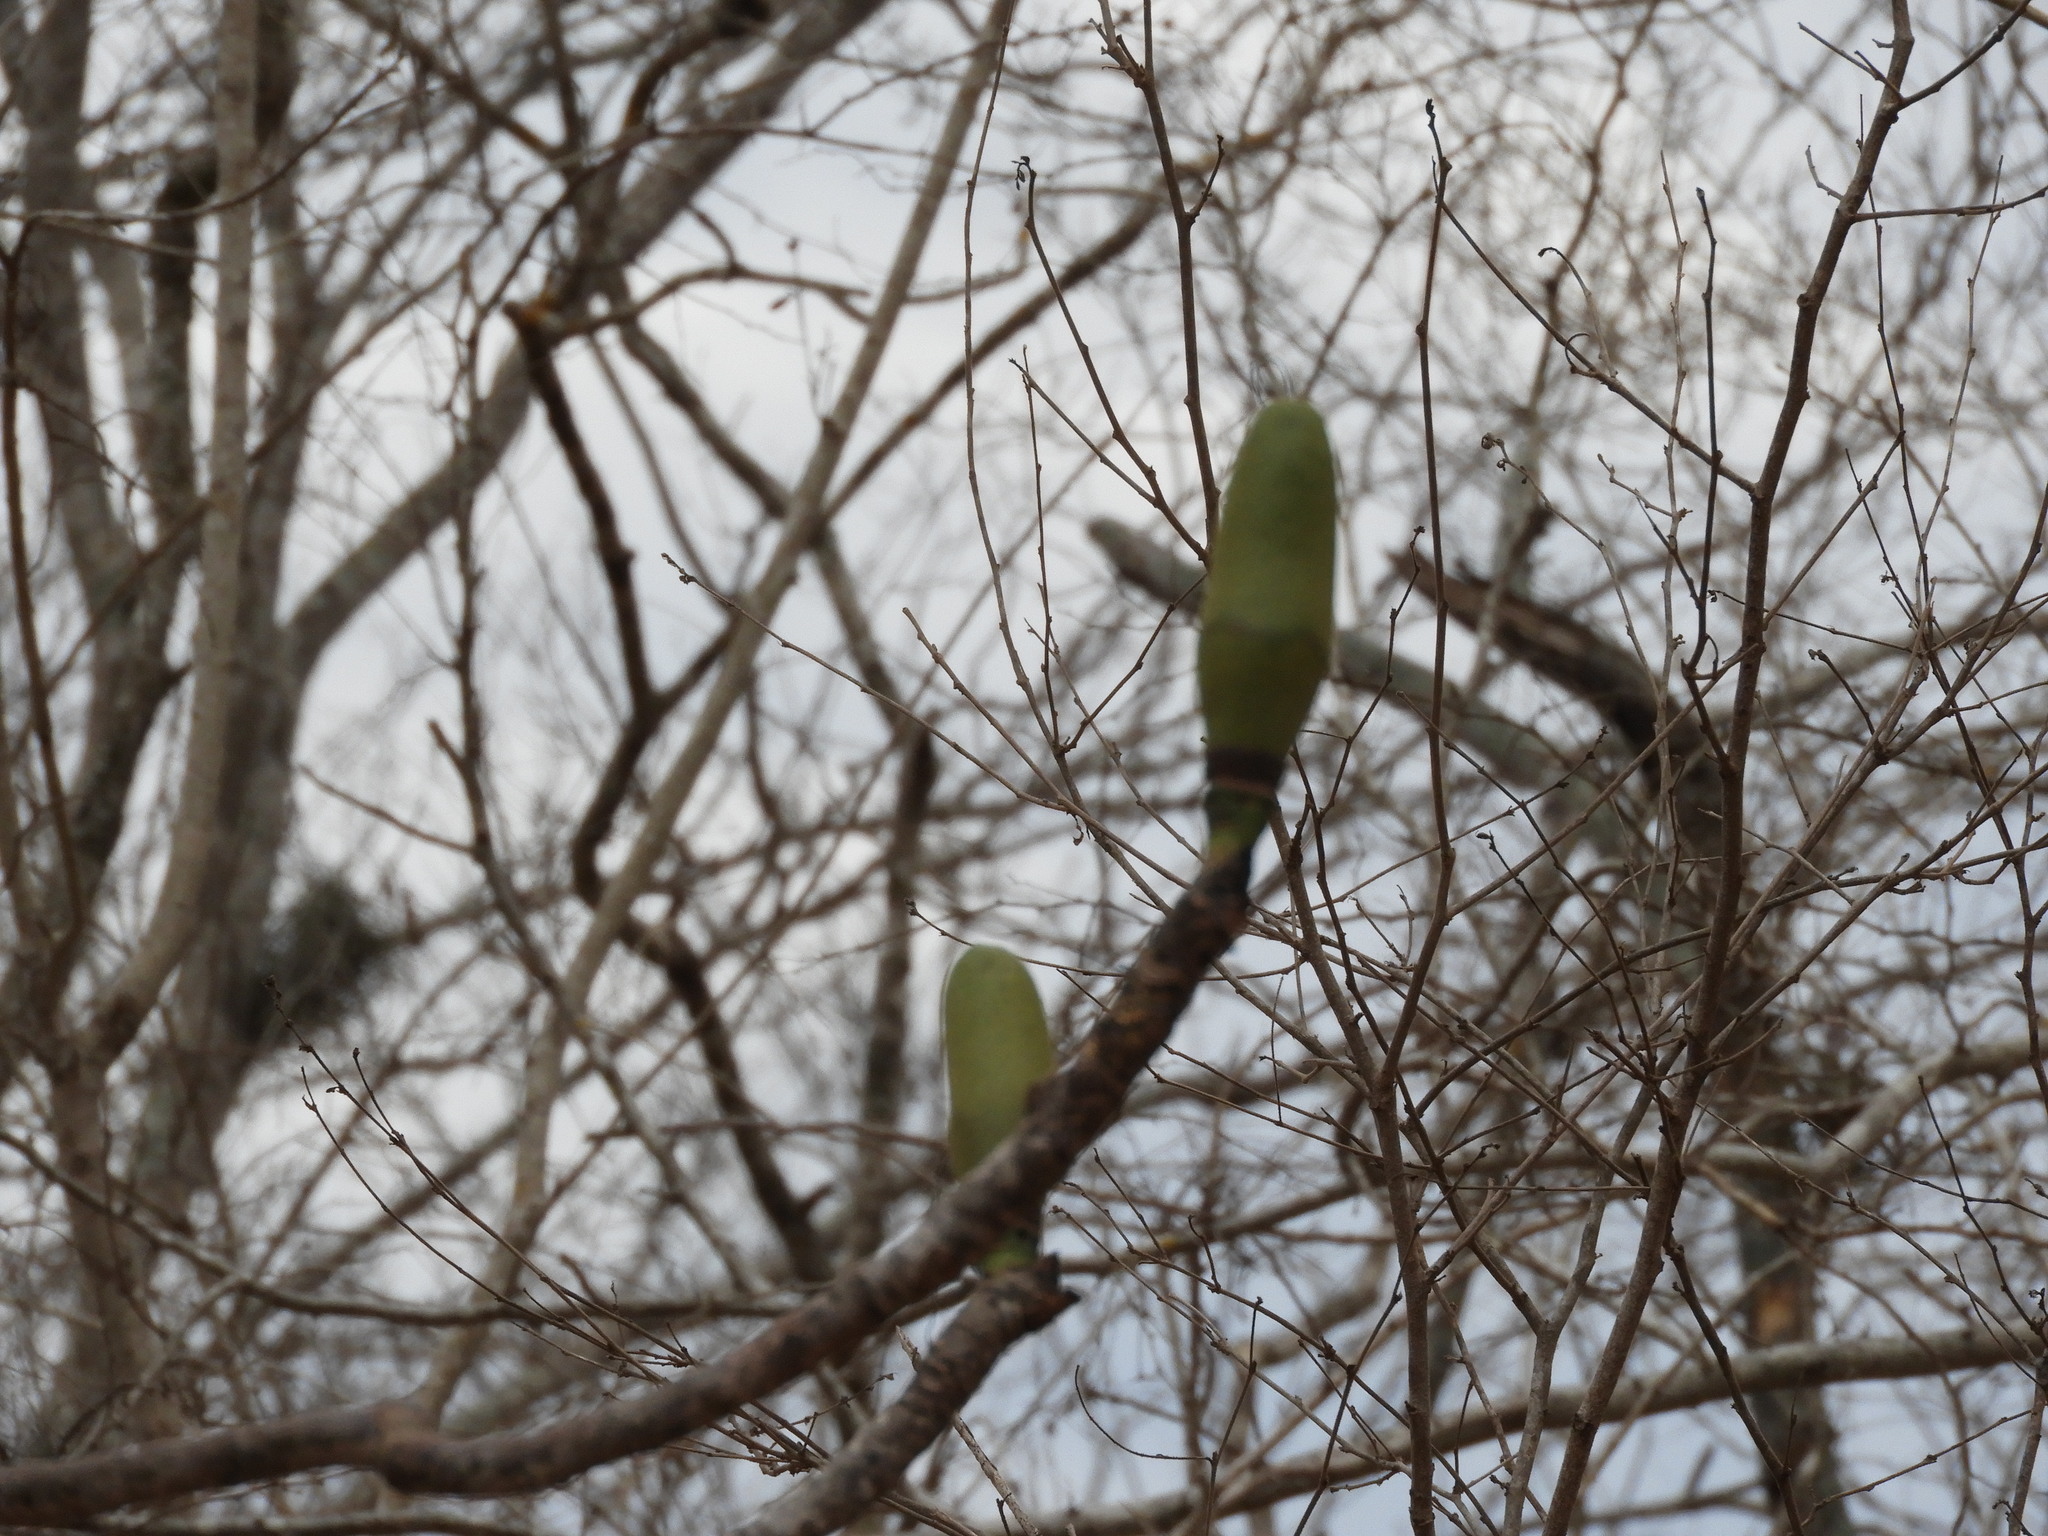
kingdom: Plantae
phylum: Tracheophyta
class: Magnoliopsida
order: Malvales
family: Malvaceae
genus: Pseudobombax
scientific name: Pseudobombax palmeri
